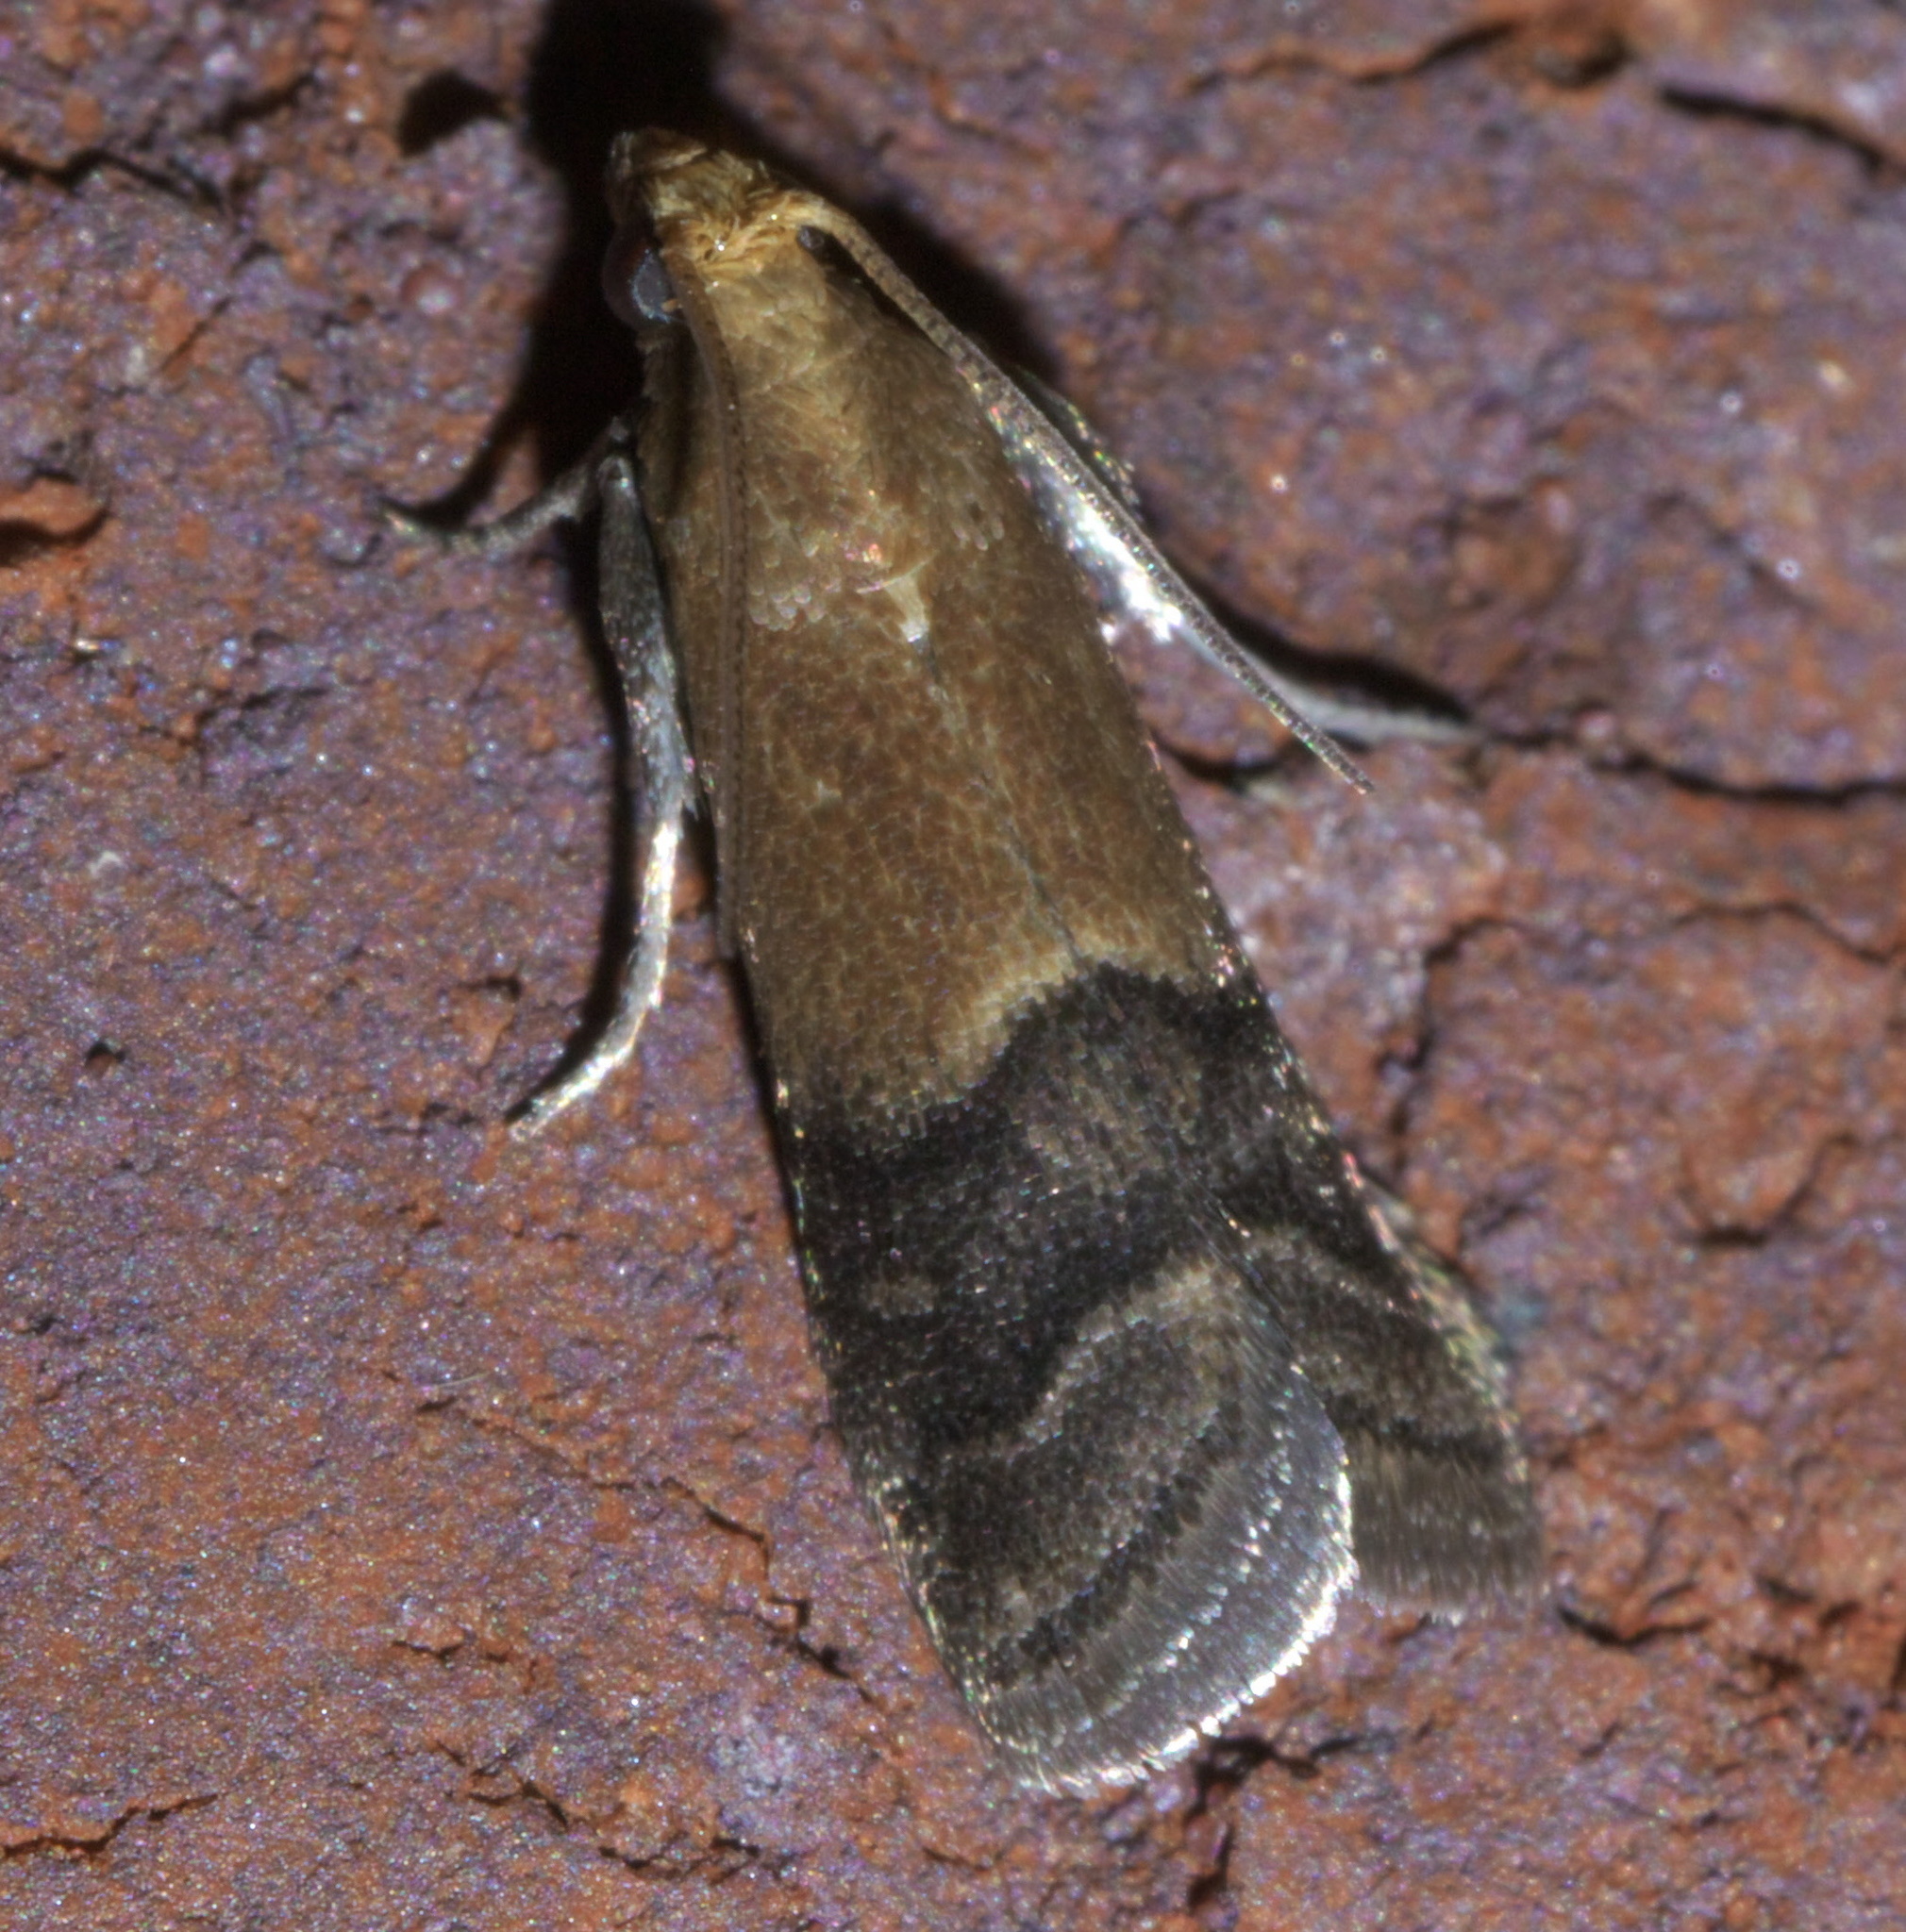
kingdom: Animalia
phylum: Arthropoda
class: Insecta
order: Lepidoptera
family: Pyralidae
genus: Eulogia
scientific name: Eulogia ochrifrontella
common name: Broad-banded eulogia moth
